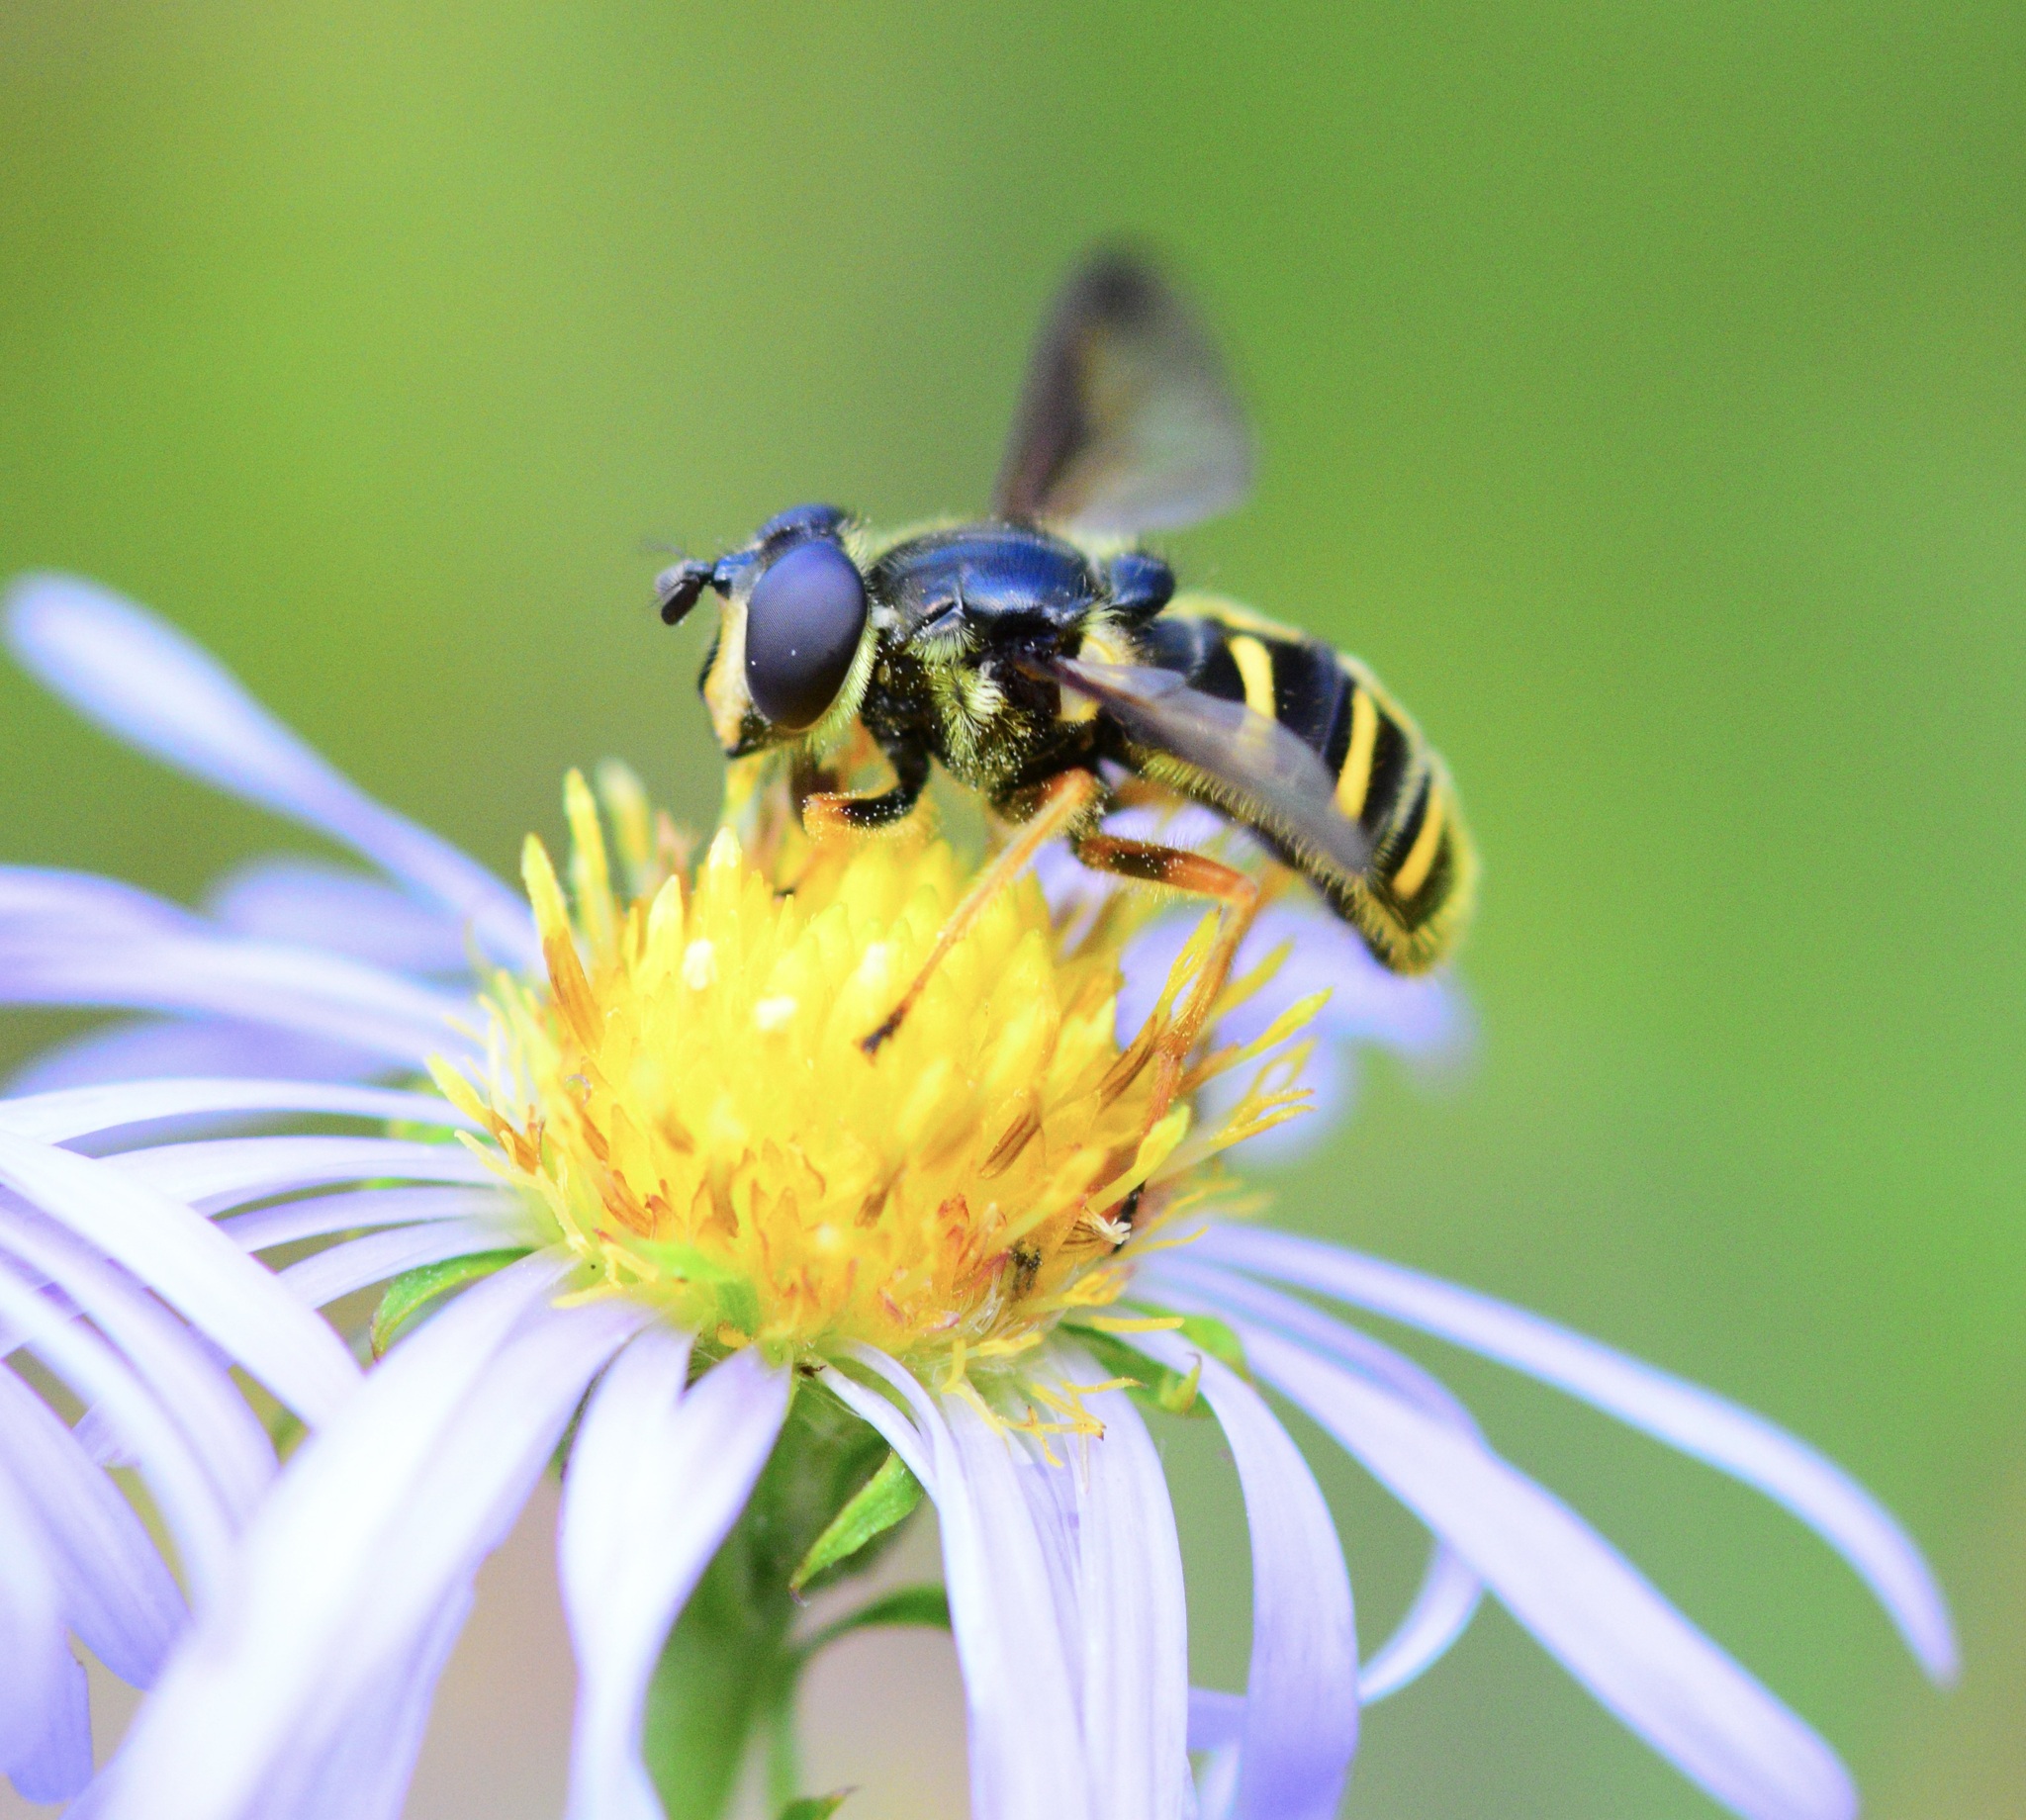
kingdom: Animalia
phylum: Arthropoda
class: Insecta
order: Diptera
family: Syrphidae
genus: Sericomyia
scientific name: Sericomyia chrysotoxoides
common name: Oblique-banded pond fly
